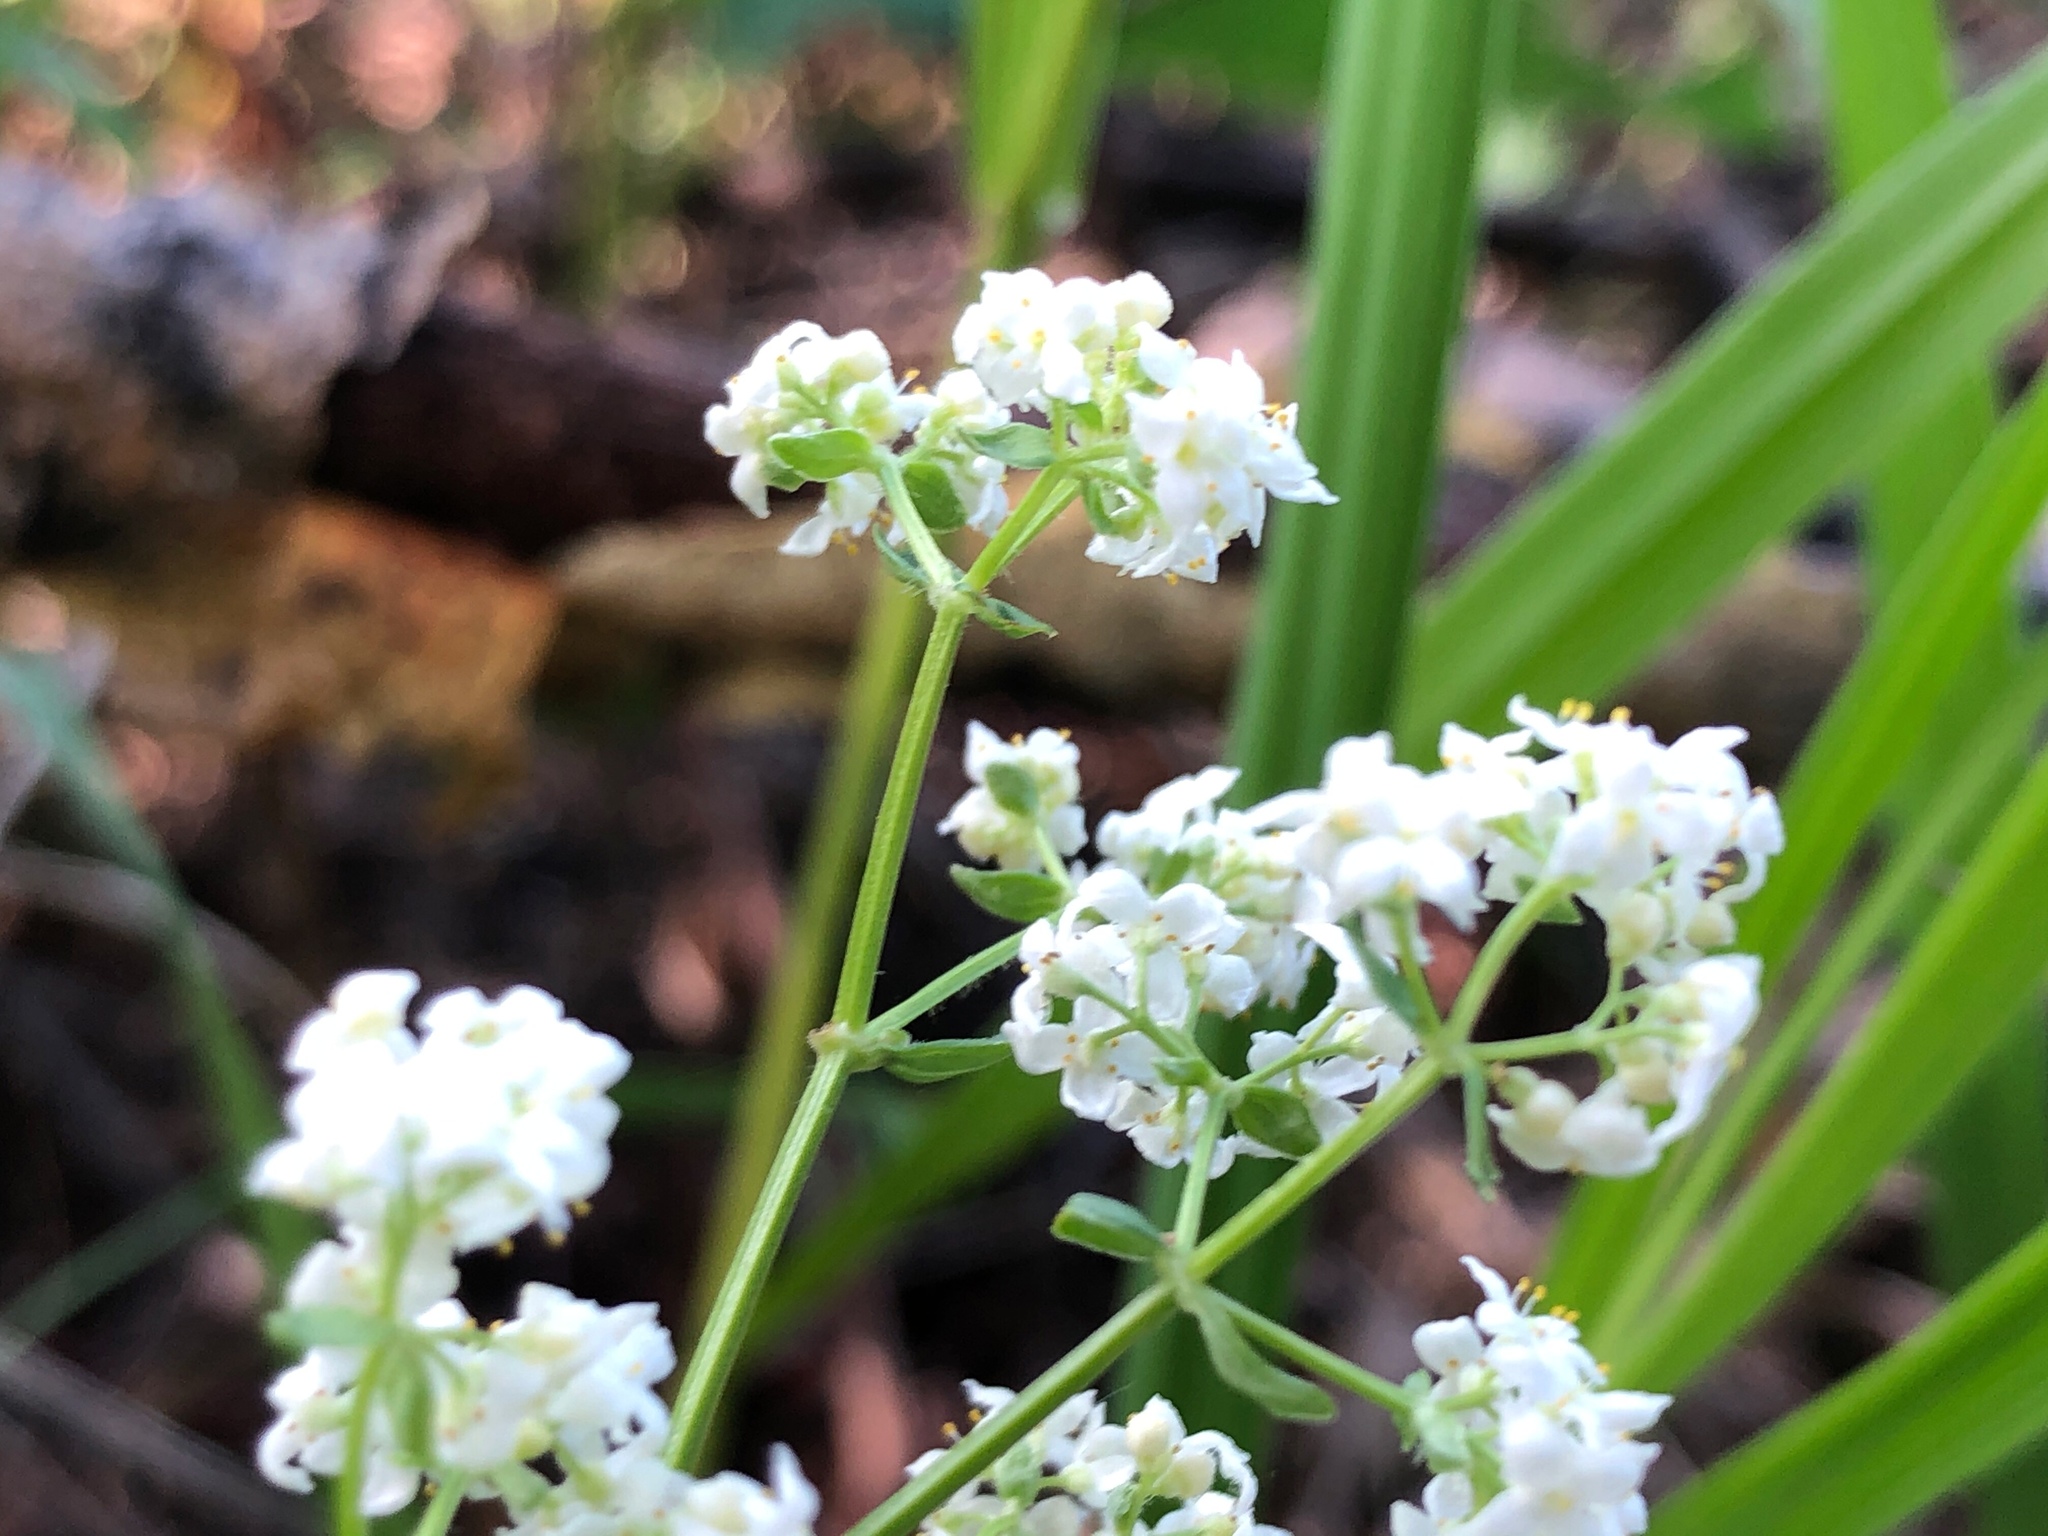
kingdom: Plantae
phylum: Tracheophyta
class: Magnoliopsida
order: Gentianales
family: Rubiaceae
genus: Galium
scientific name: Galium boreale
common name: Northern bedstraw
